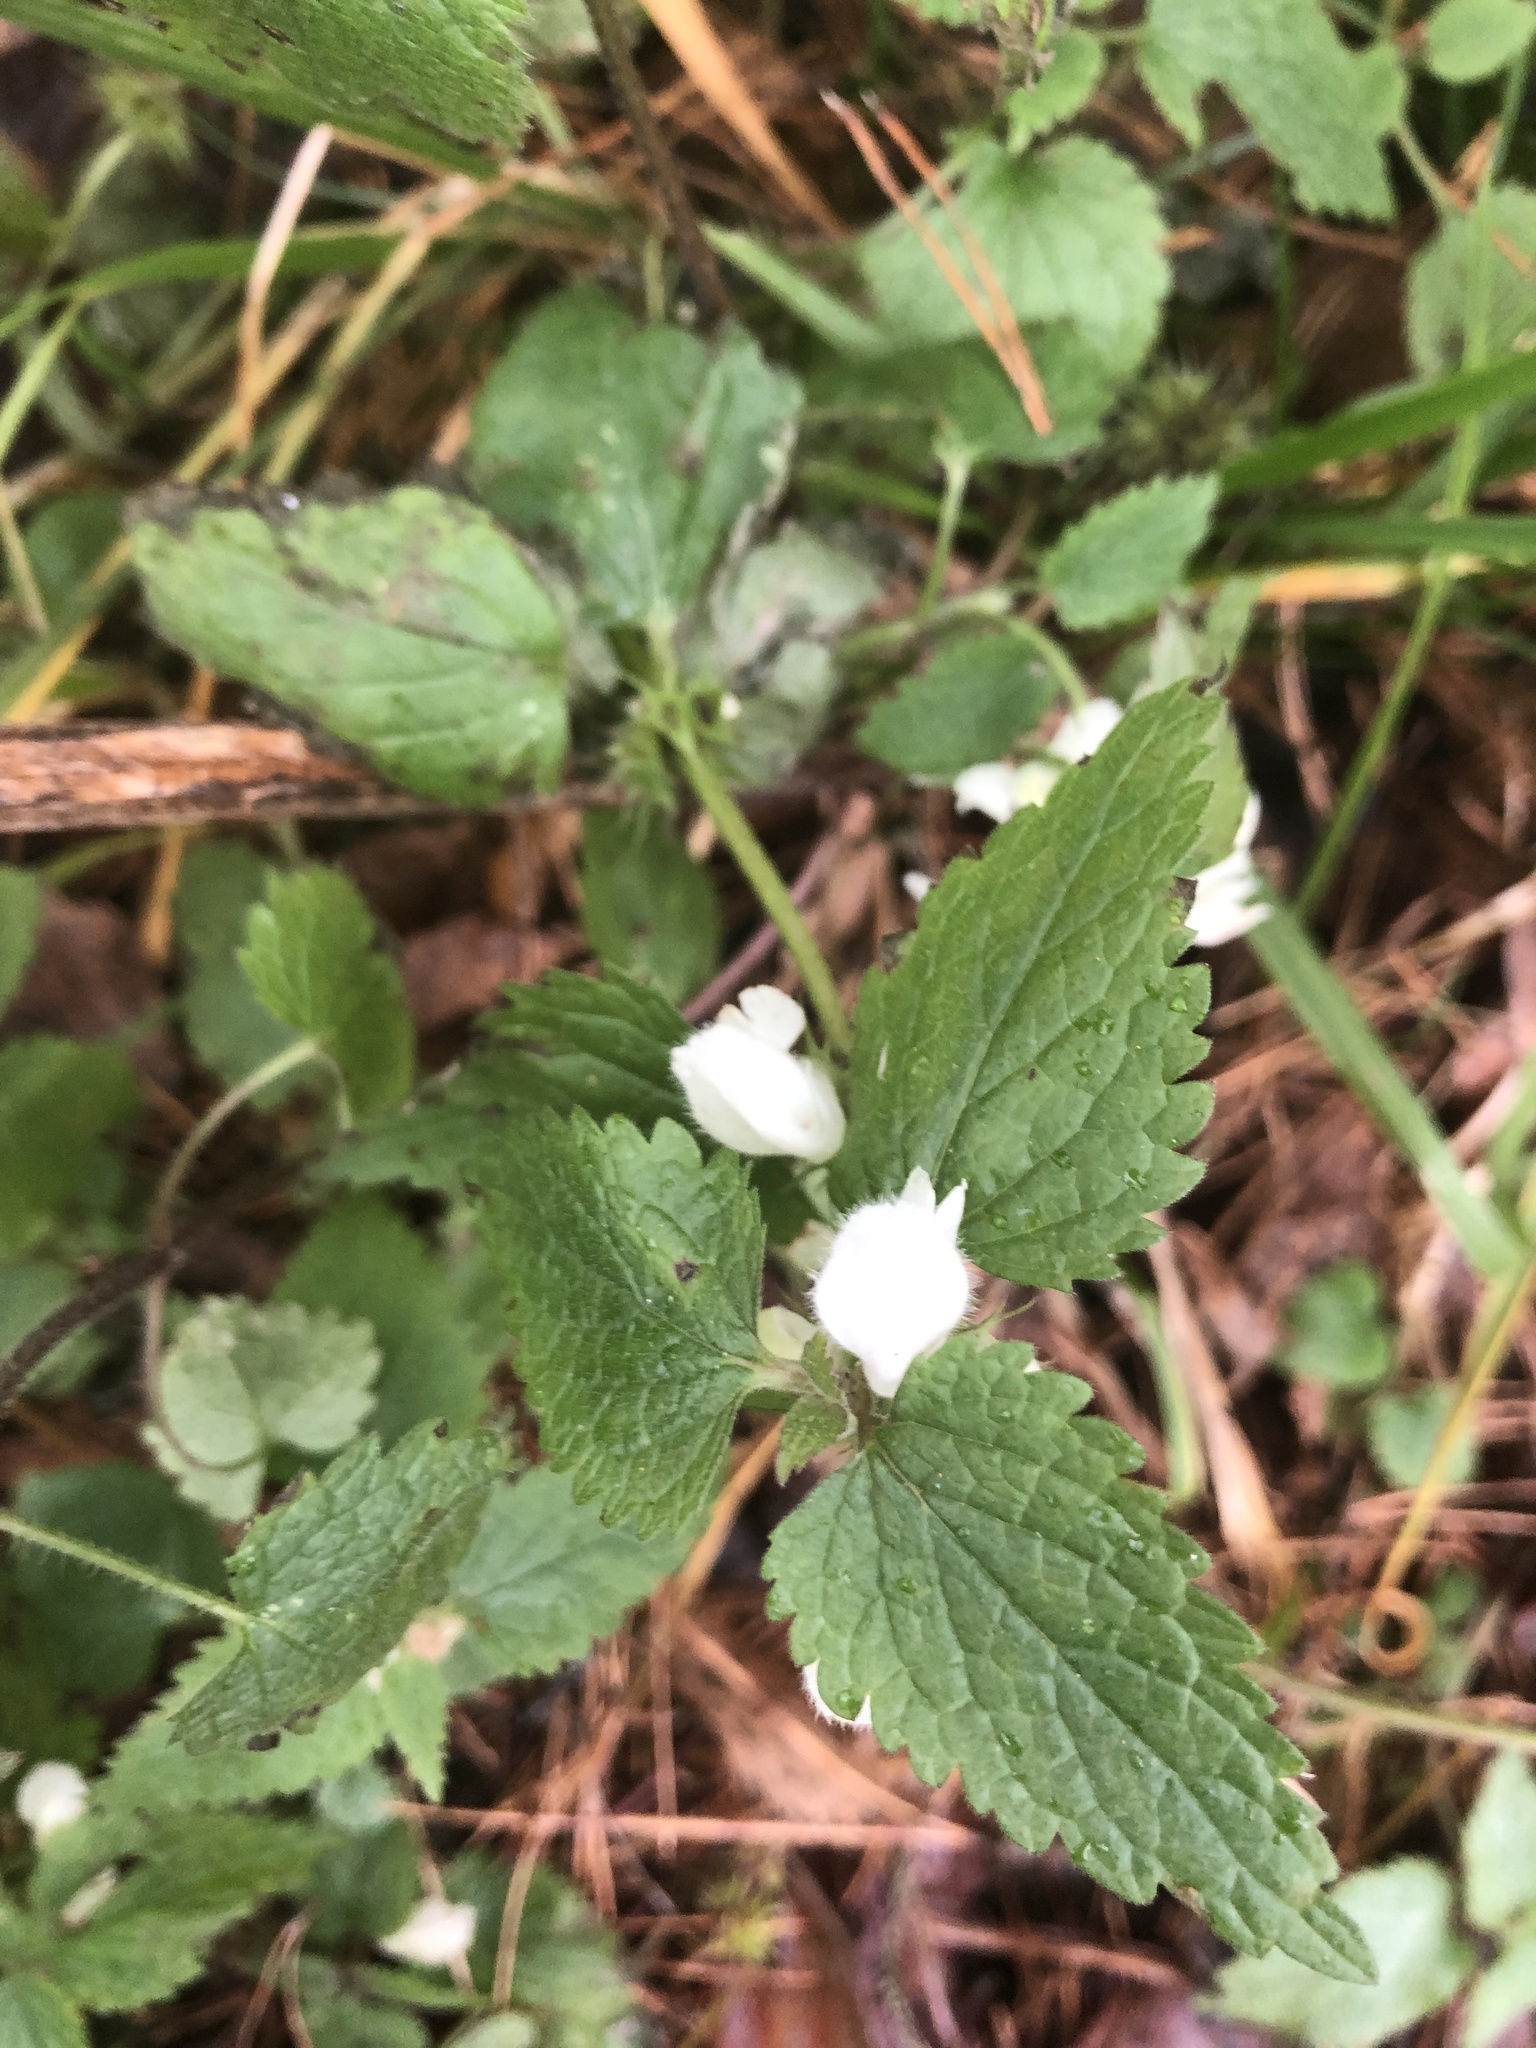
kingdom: Plantae
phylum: Tracheophyta
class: Magnoliopsida
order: Lamiales
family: Lamiaceae
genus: Lamium
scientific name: Lamium album
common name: White dead-nettle
